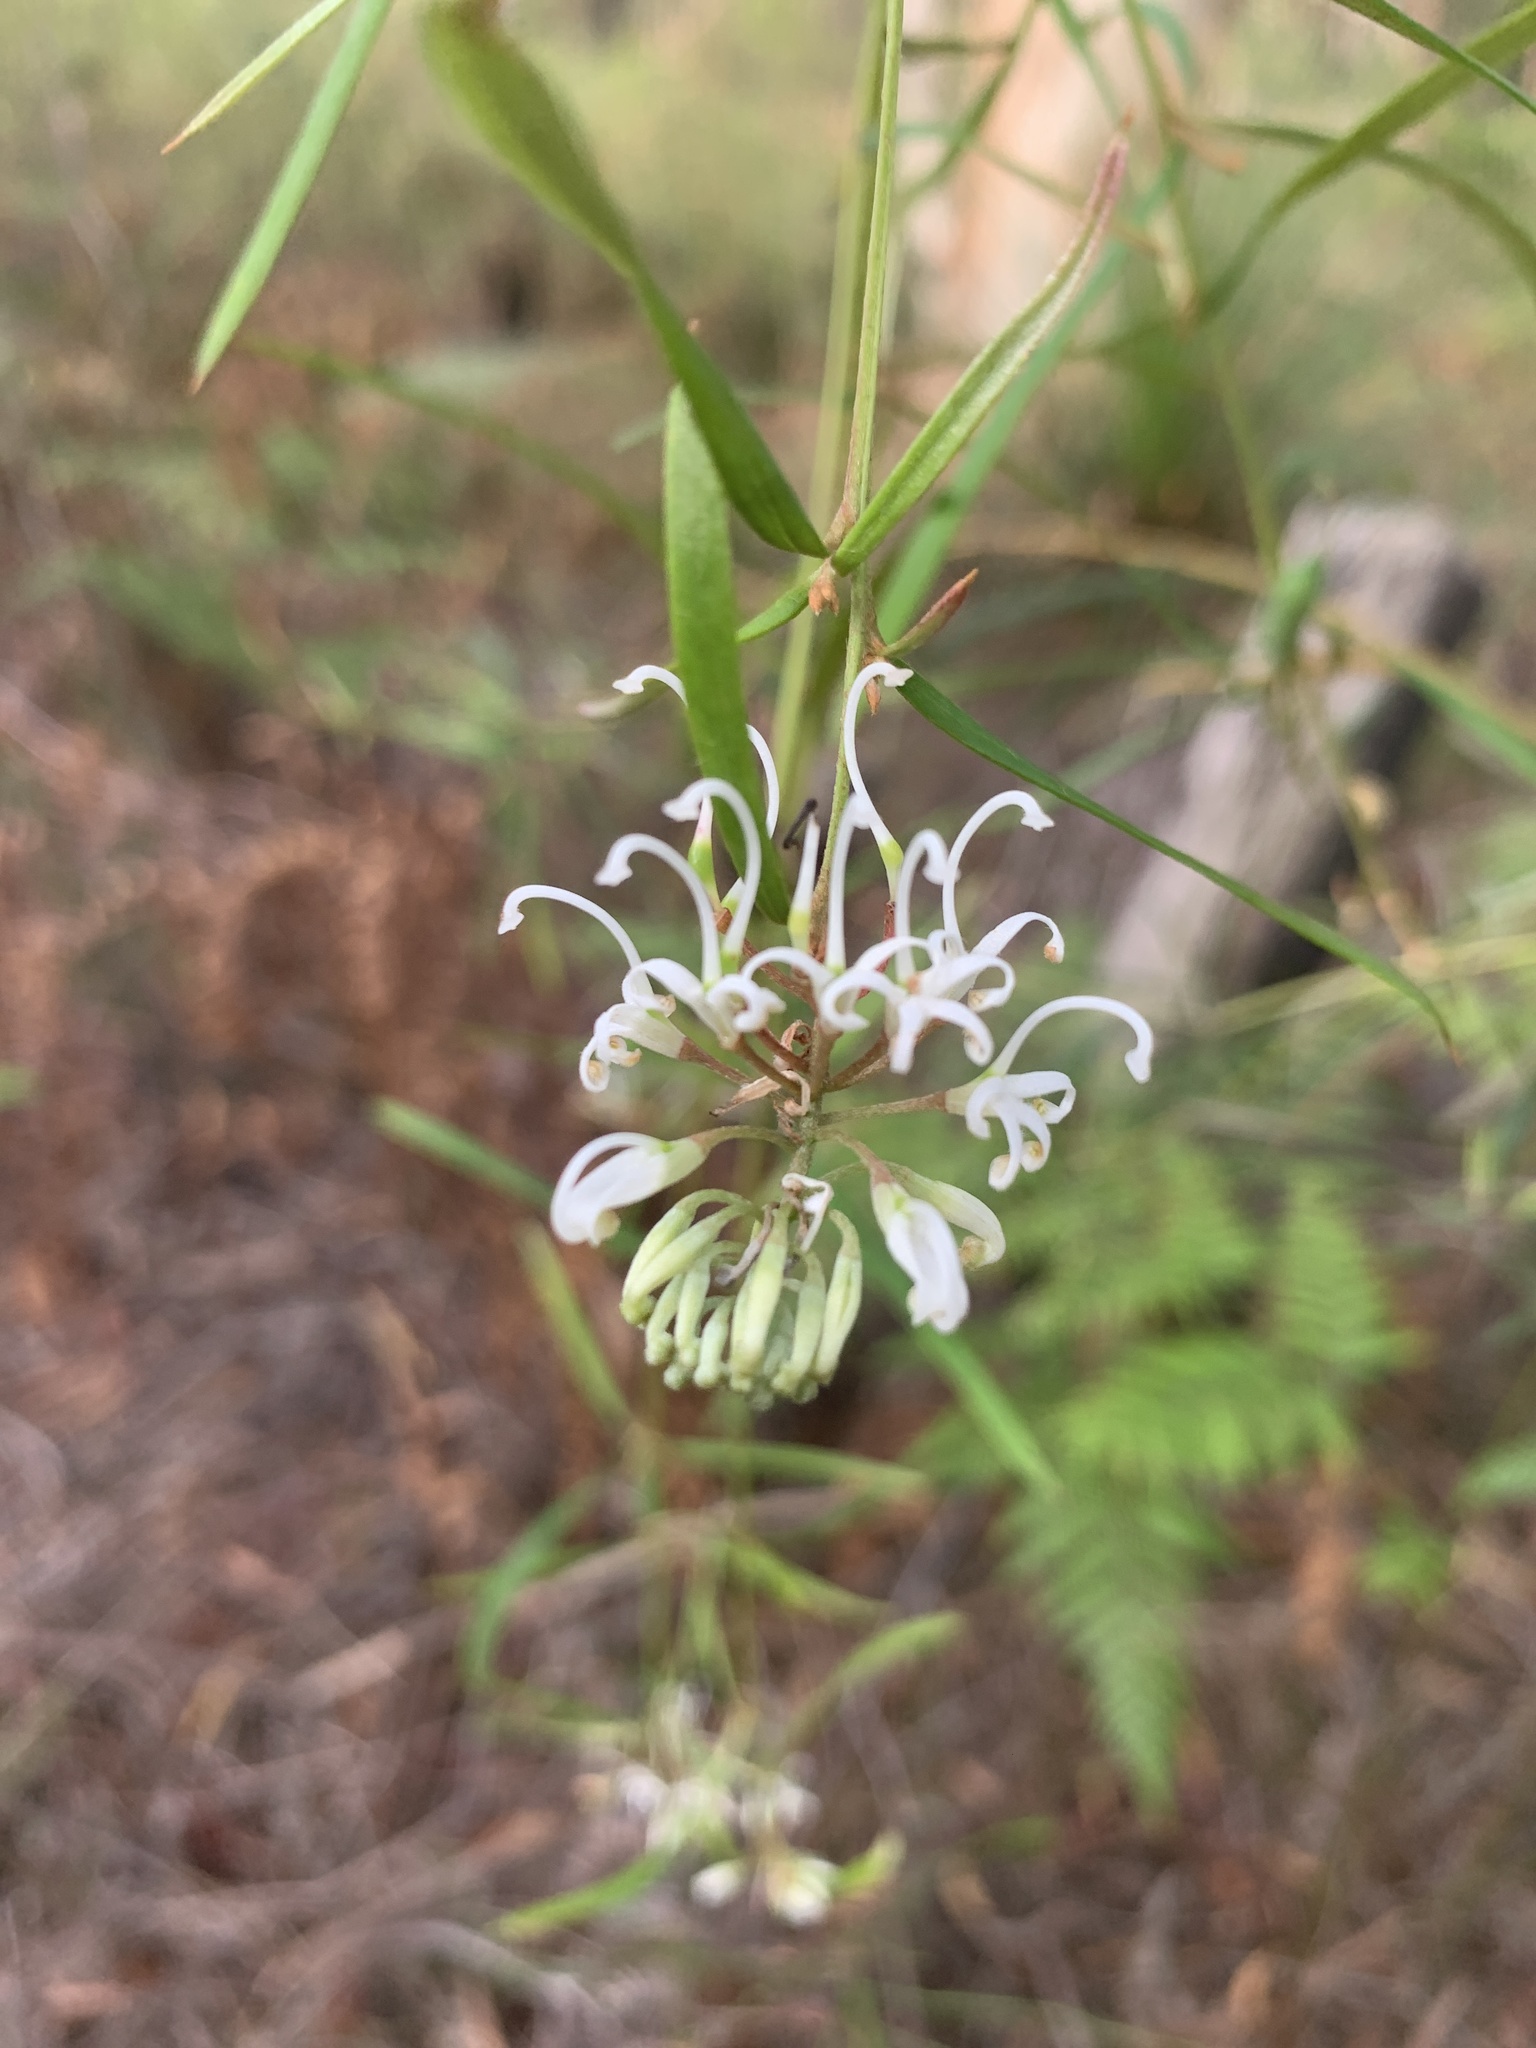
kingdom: Plantae
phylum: Tracheophyta
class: Magnoliopsida
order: Proteales
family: Proteaceae
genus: Grevillea
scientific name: Grevillea linearifolia
